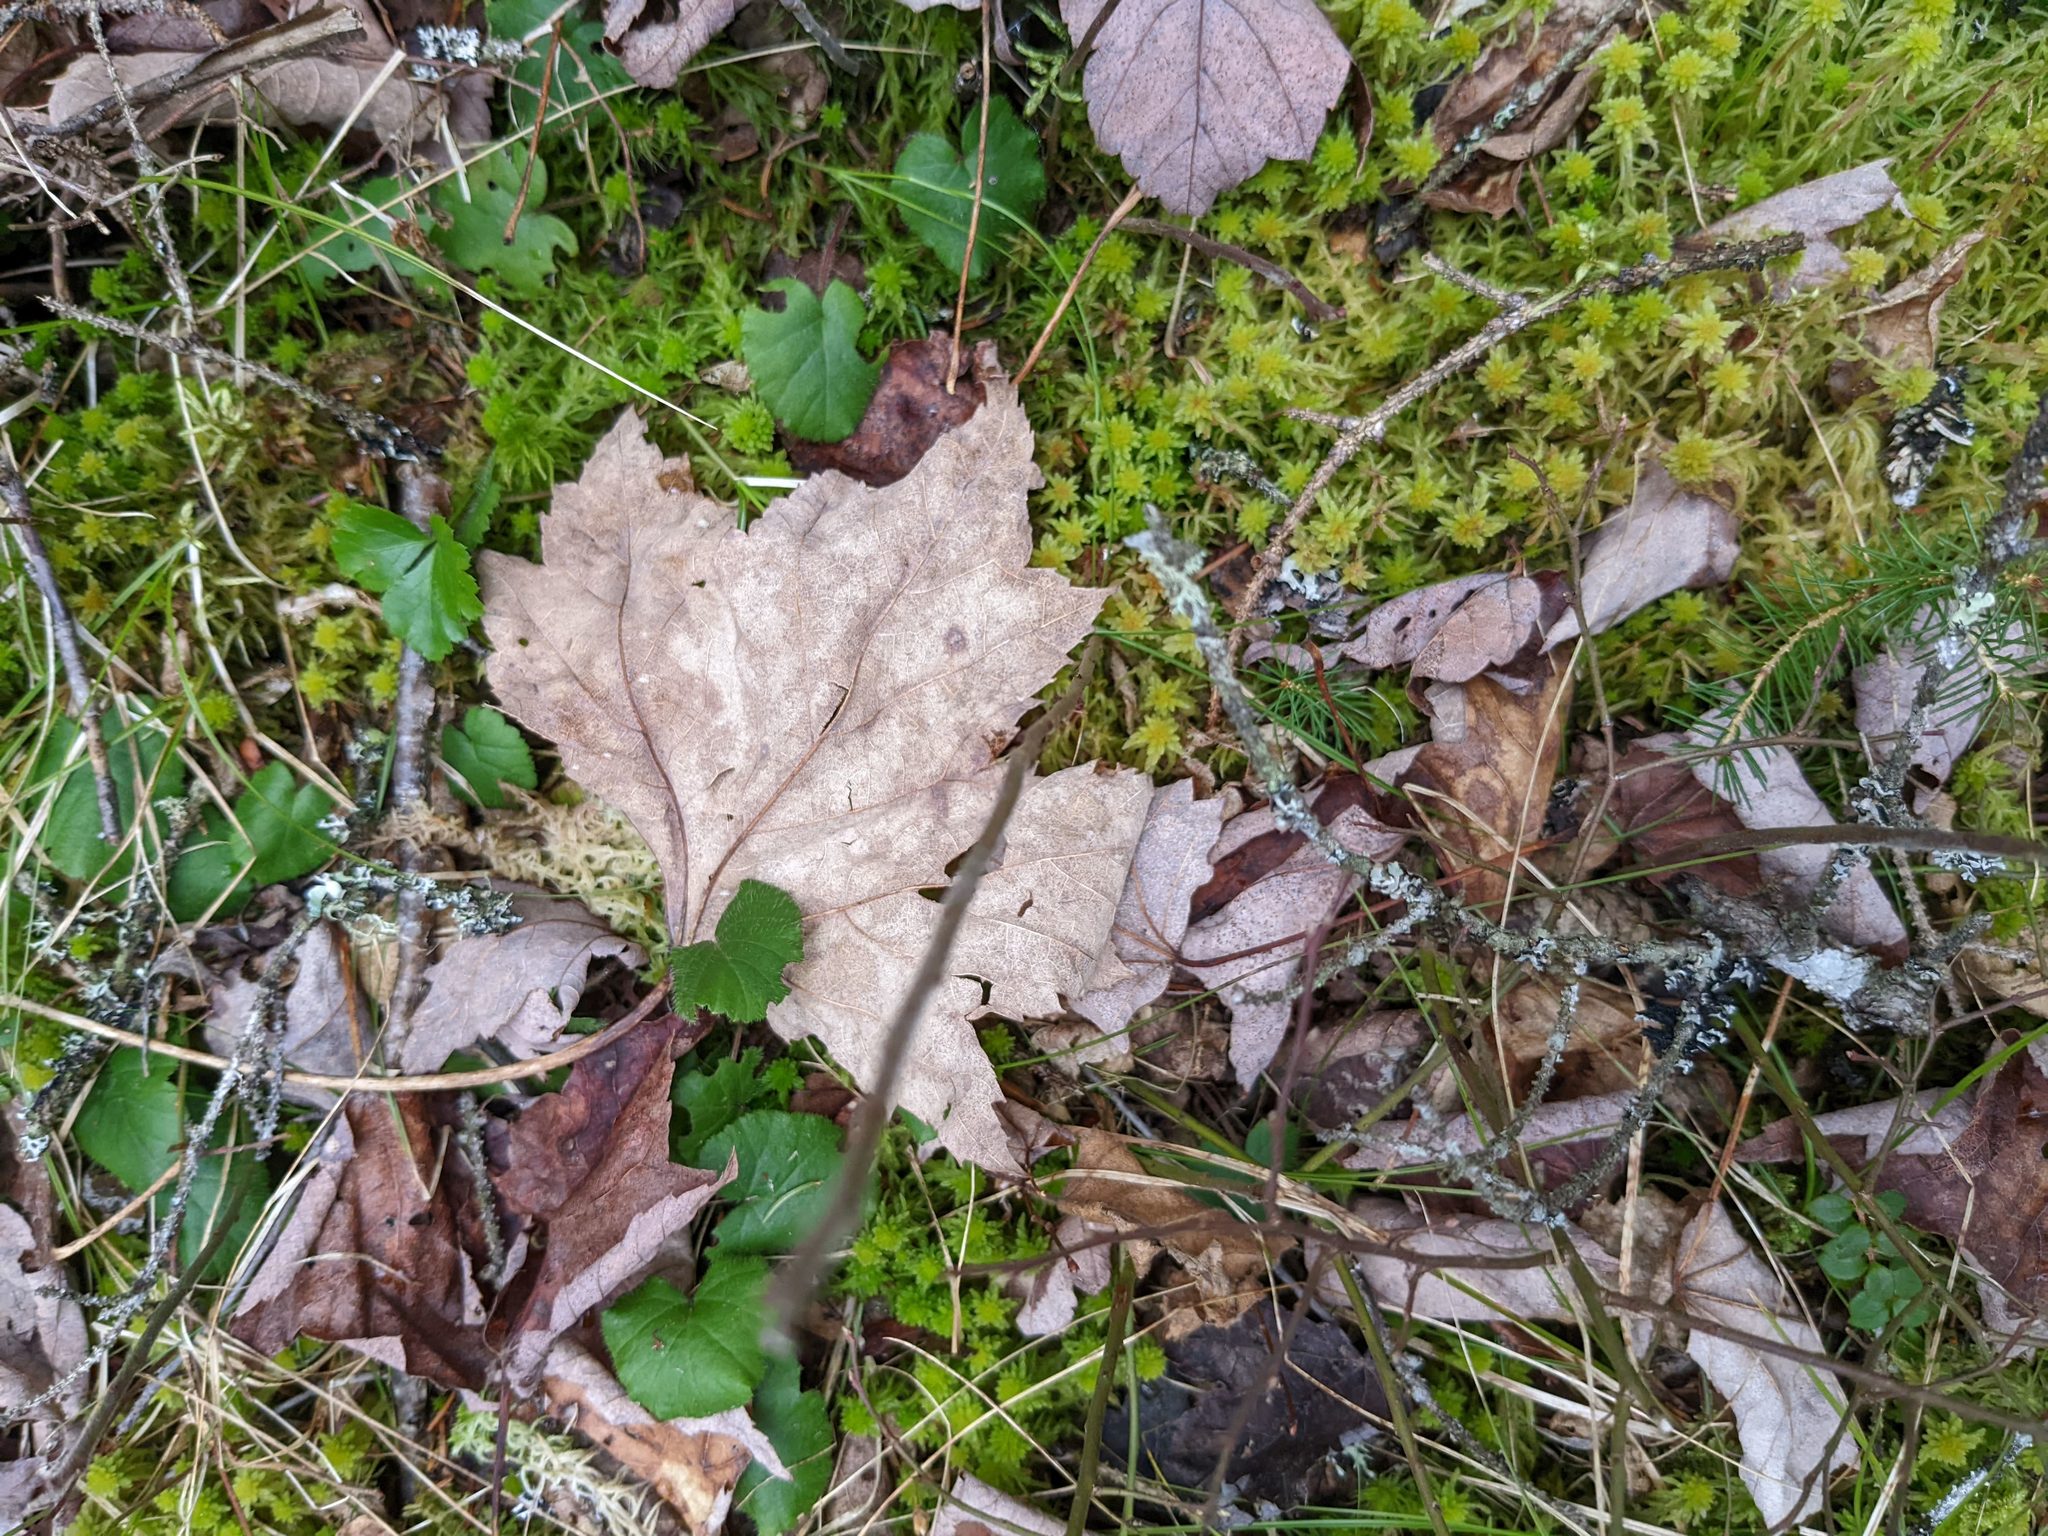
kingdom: Plantae
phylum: Tracheophyta
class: Magnoliopsida
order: Rosales
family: Rosaceae
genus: Dalibarda
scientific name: Dalibarda repens
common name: Dewdrop
